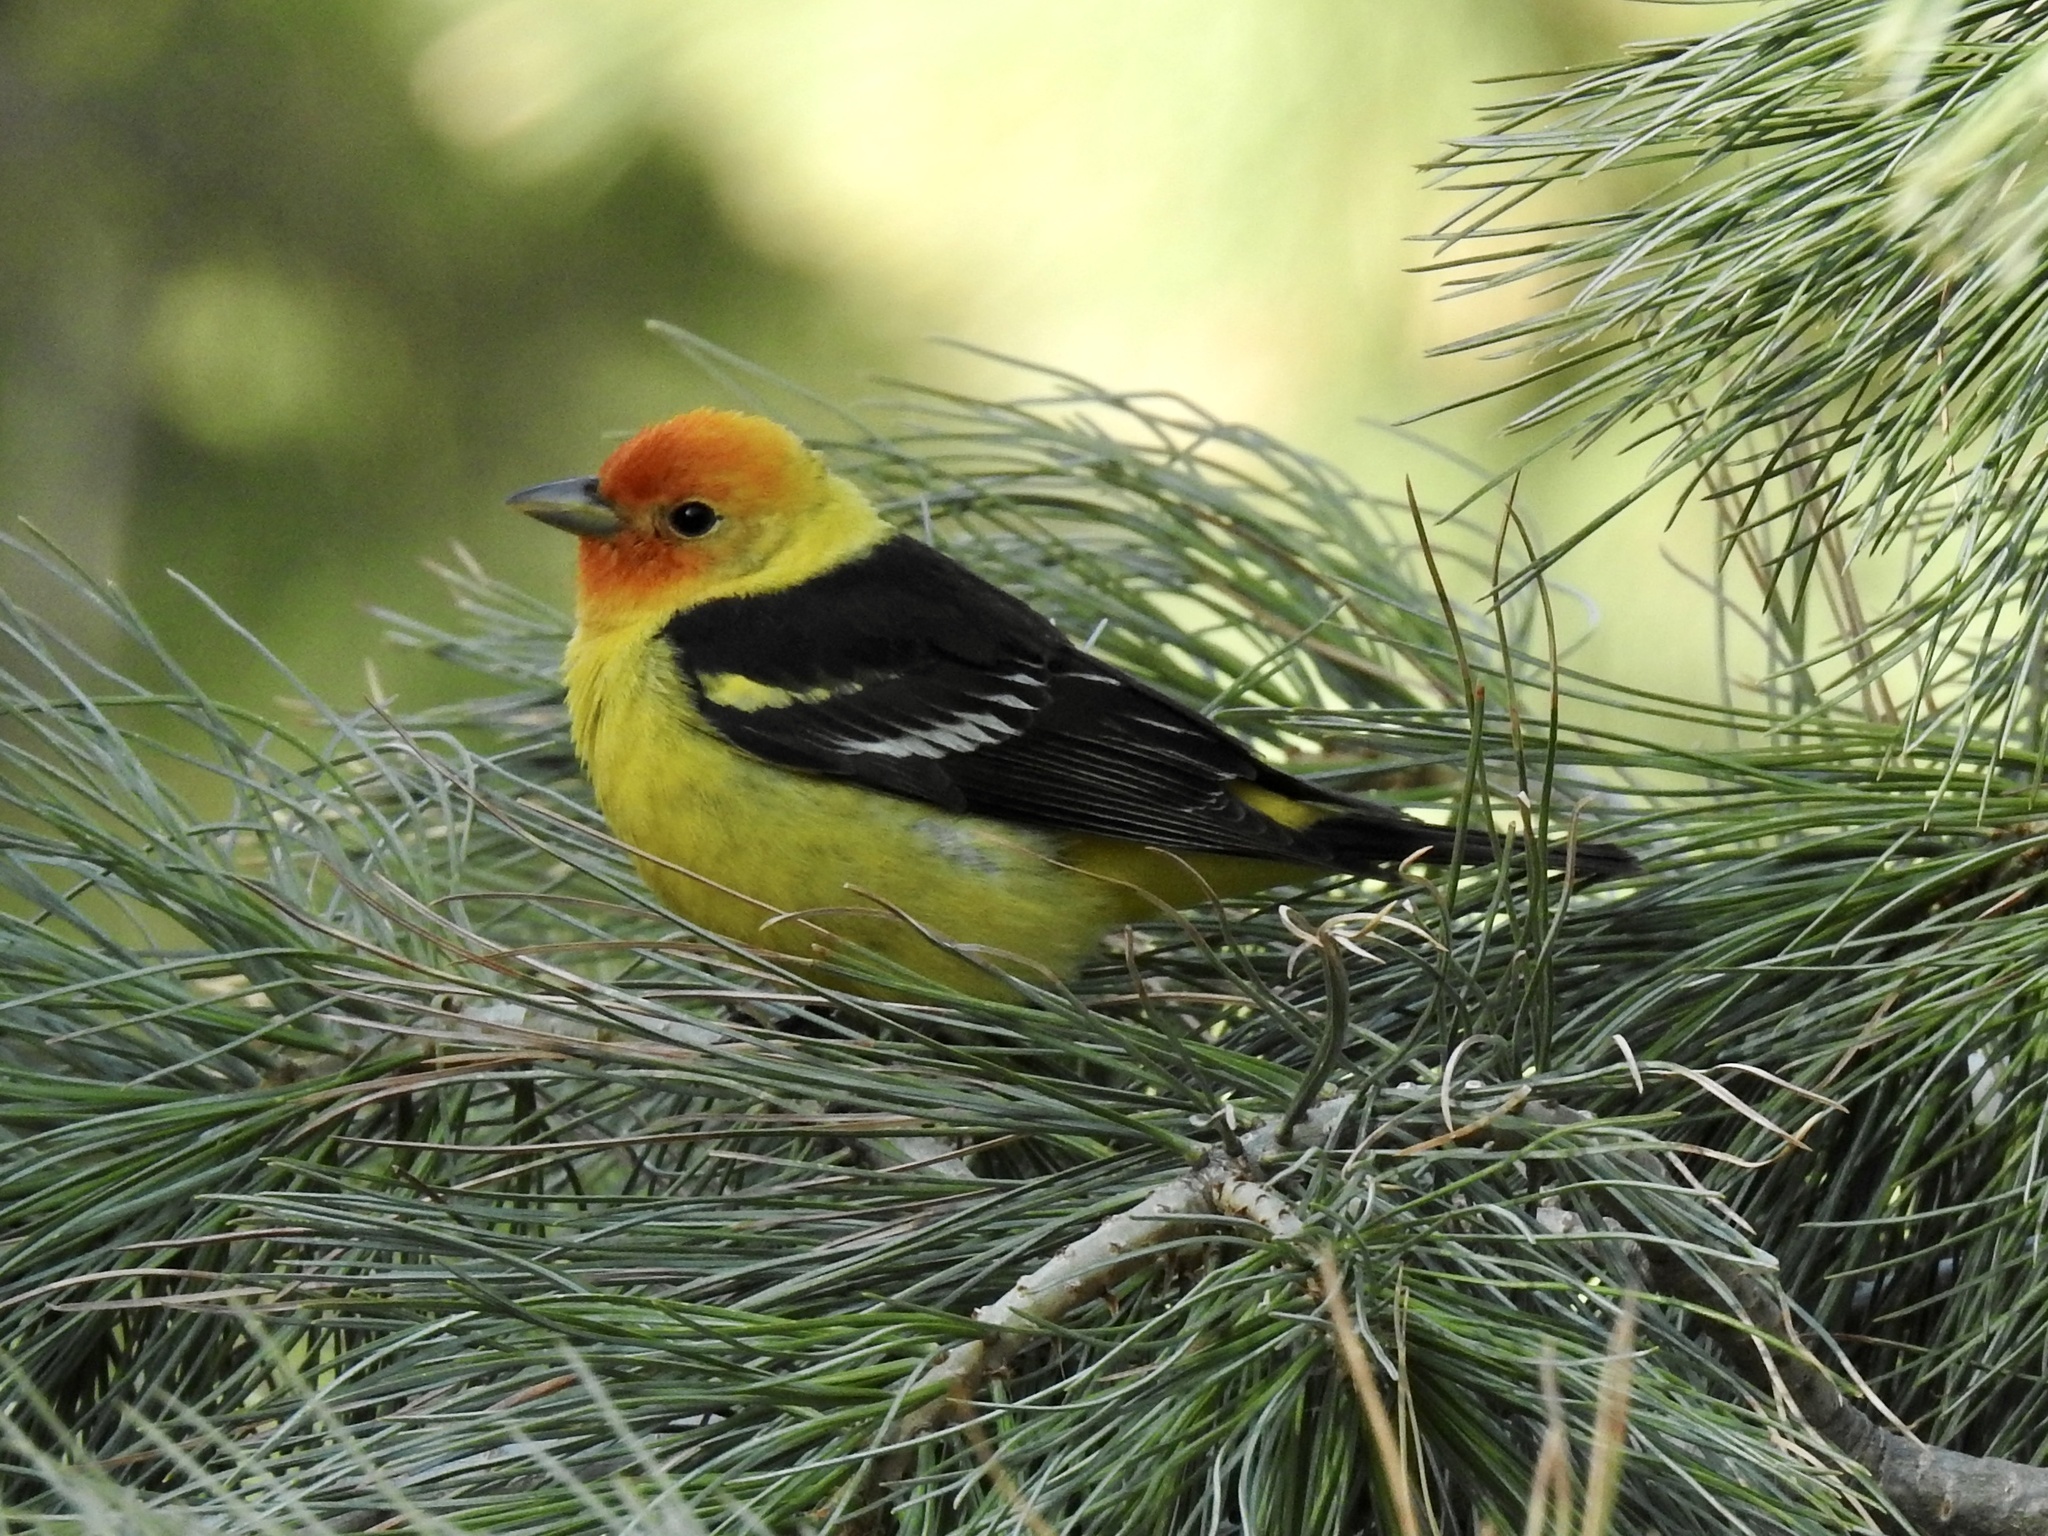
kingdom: Animalia
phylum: Chordata
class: Aves
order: Passeriformes
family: Cardinalidae
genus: Piranga
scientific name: Piranga ludoviciana
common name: Western tanager
